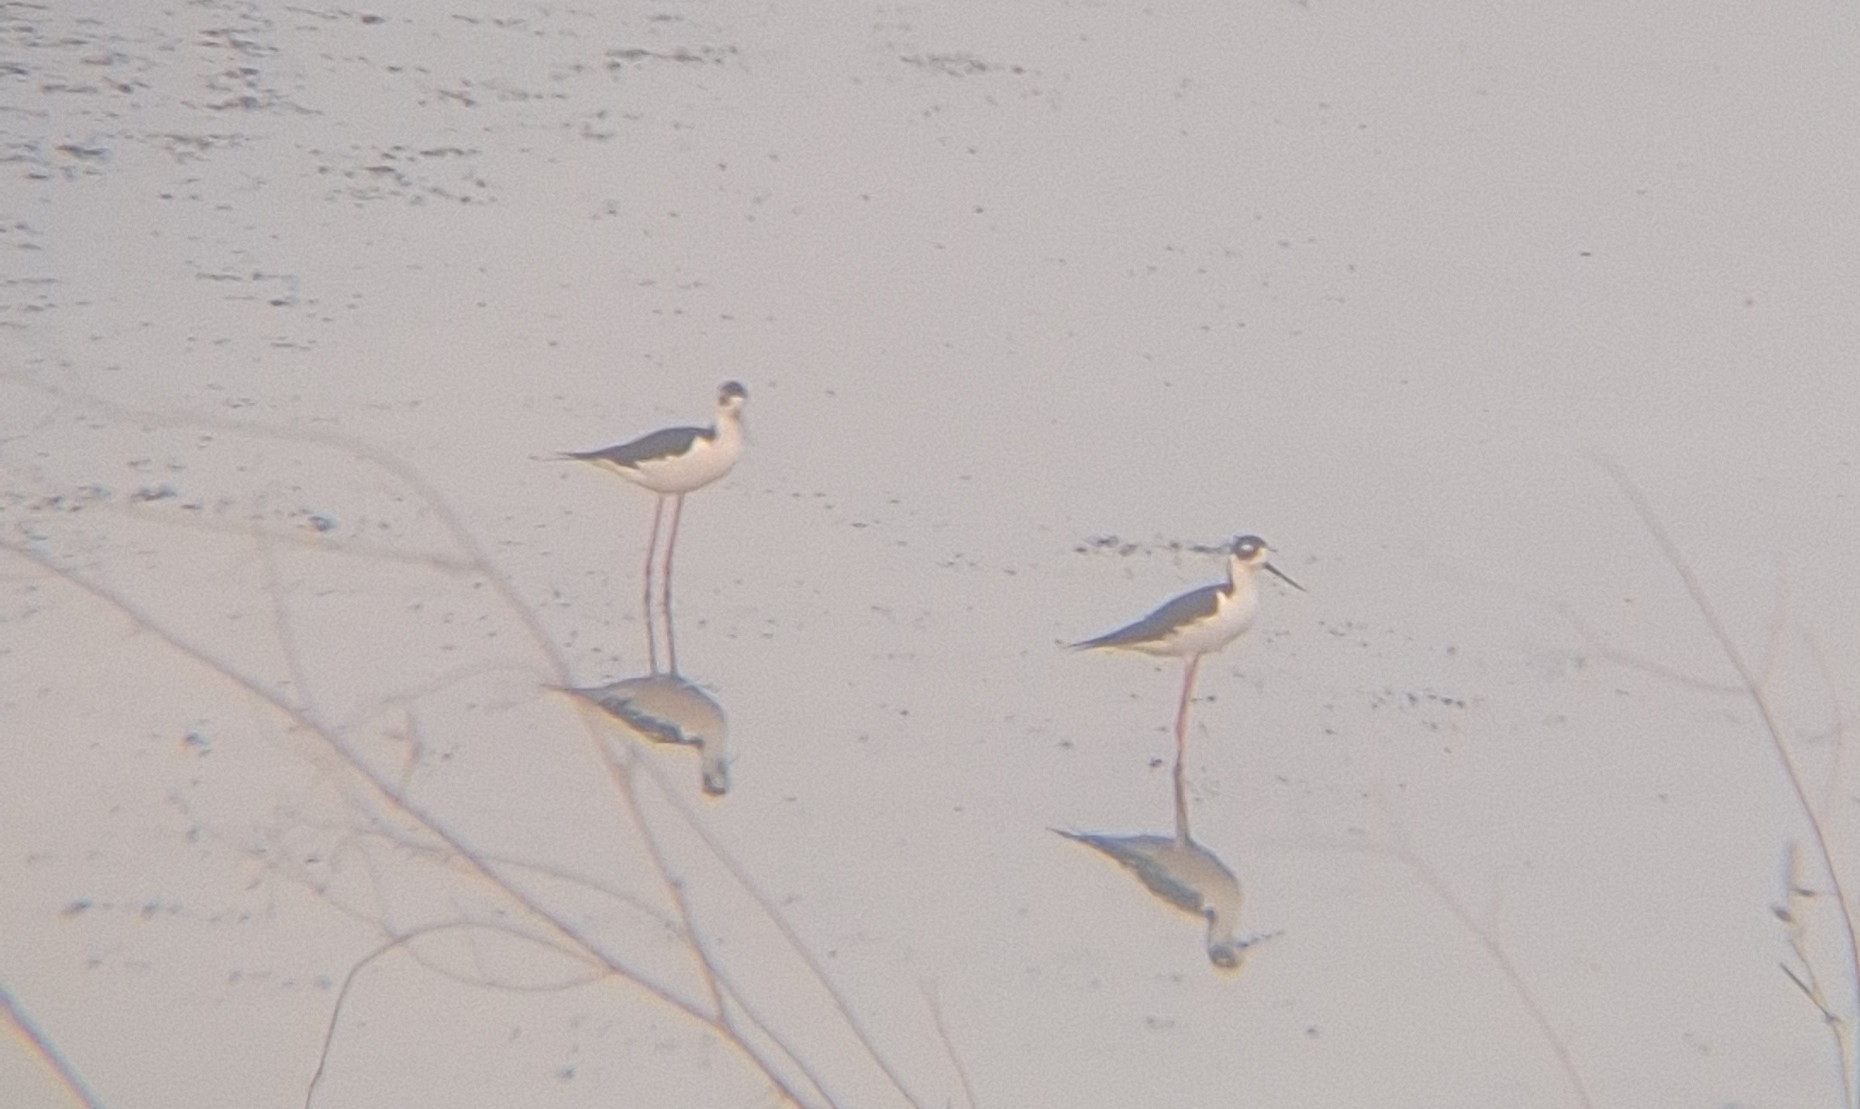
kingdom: Animalia
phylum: Chordata
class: Aves
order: Charadriiformes
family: Recurvirostridae
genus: Himantopus
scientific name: Himantopus mexicanus
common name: Black-necked stilt
